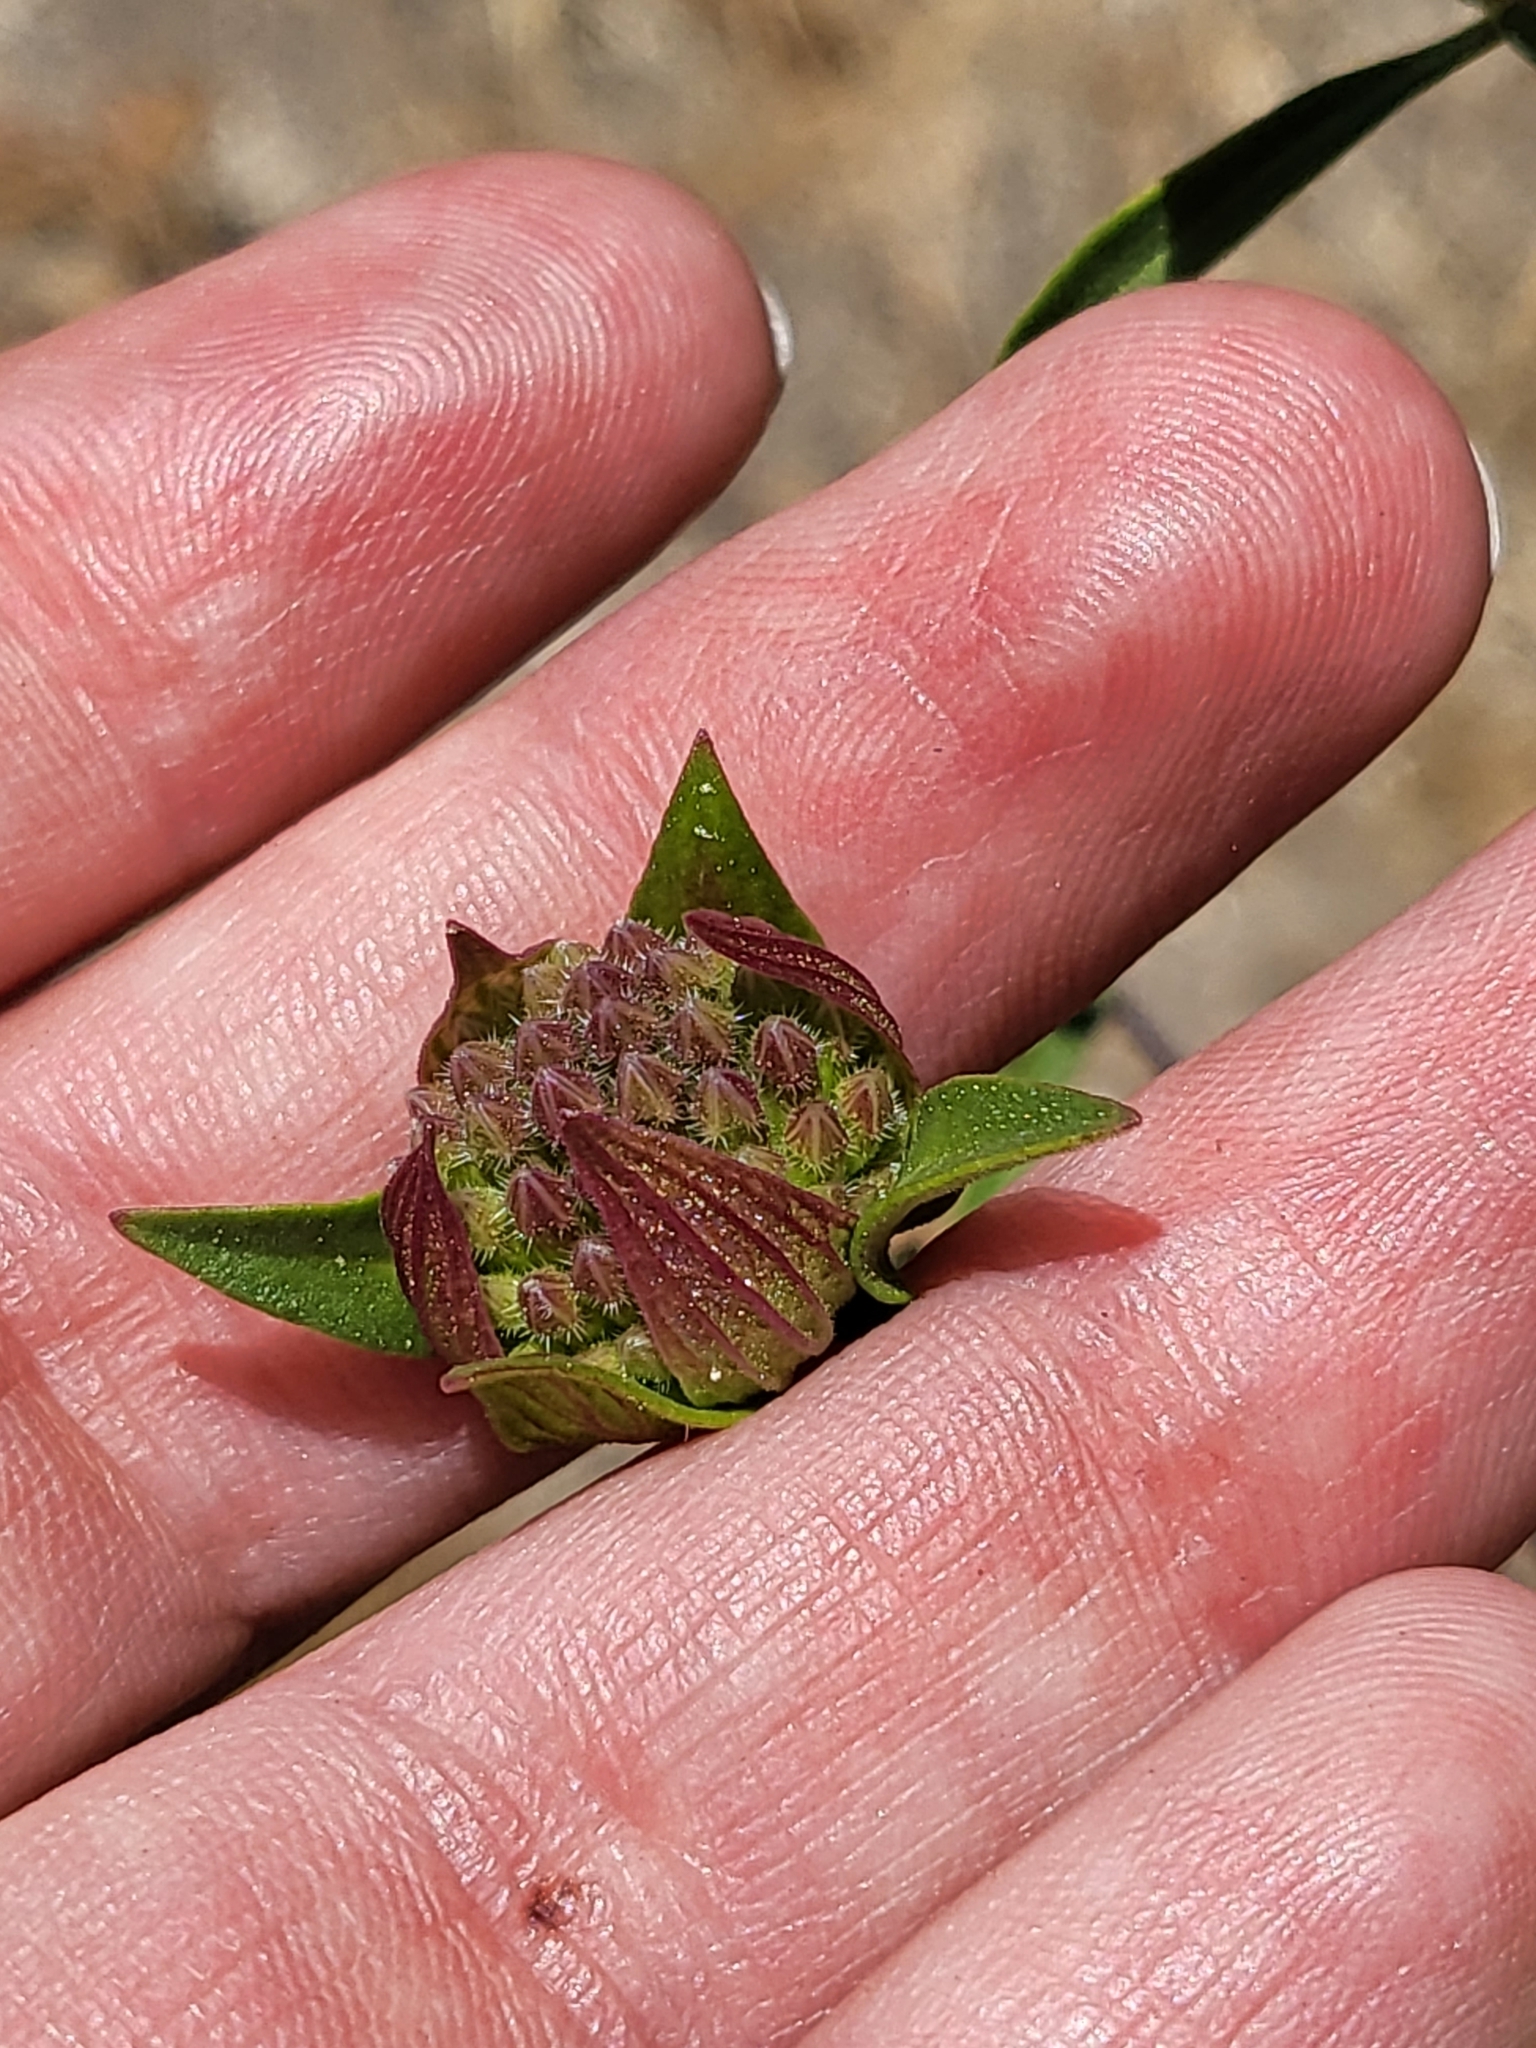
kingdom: Plantae
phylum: Tracheophyta
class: Magnoliopsida
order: Lamiales
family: Lamiaceae
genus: Monardella
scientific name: Monardella breweri
